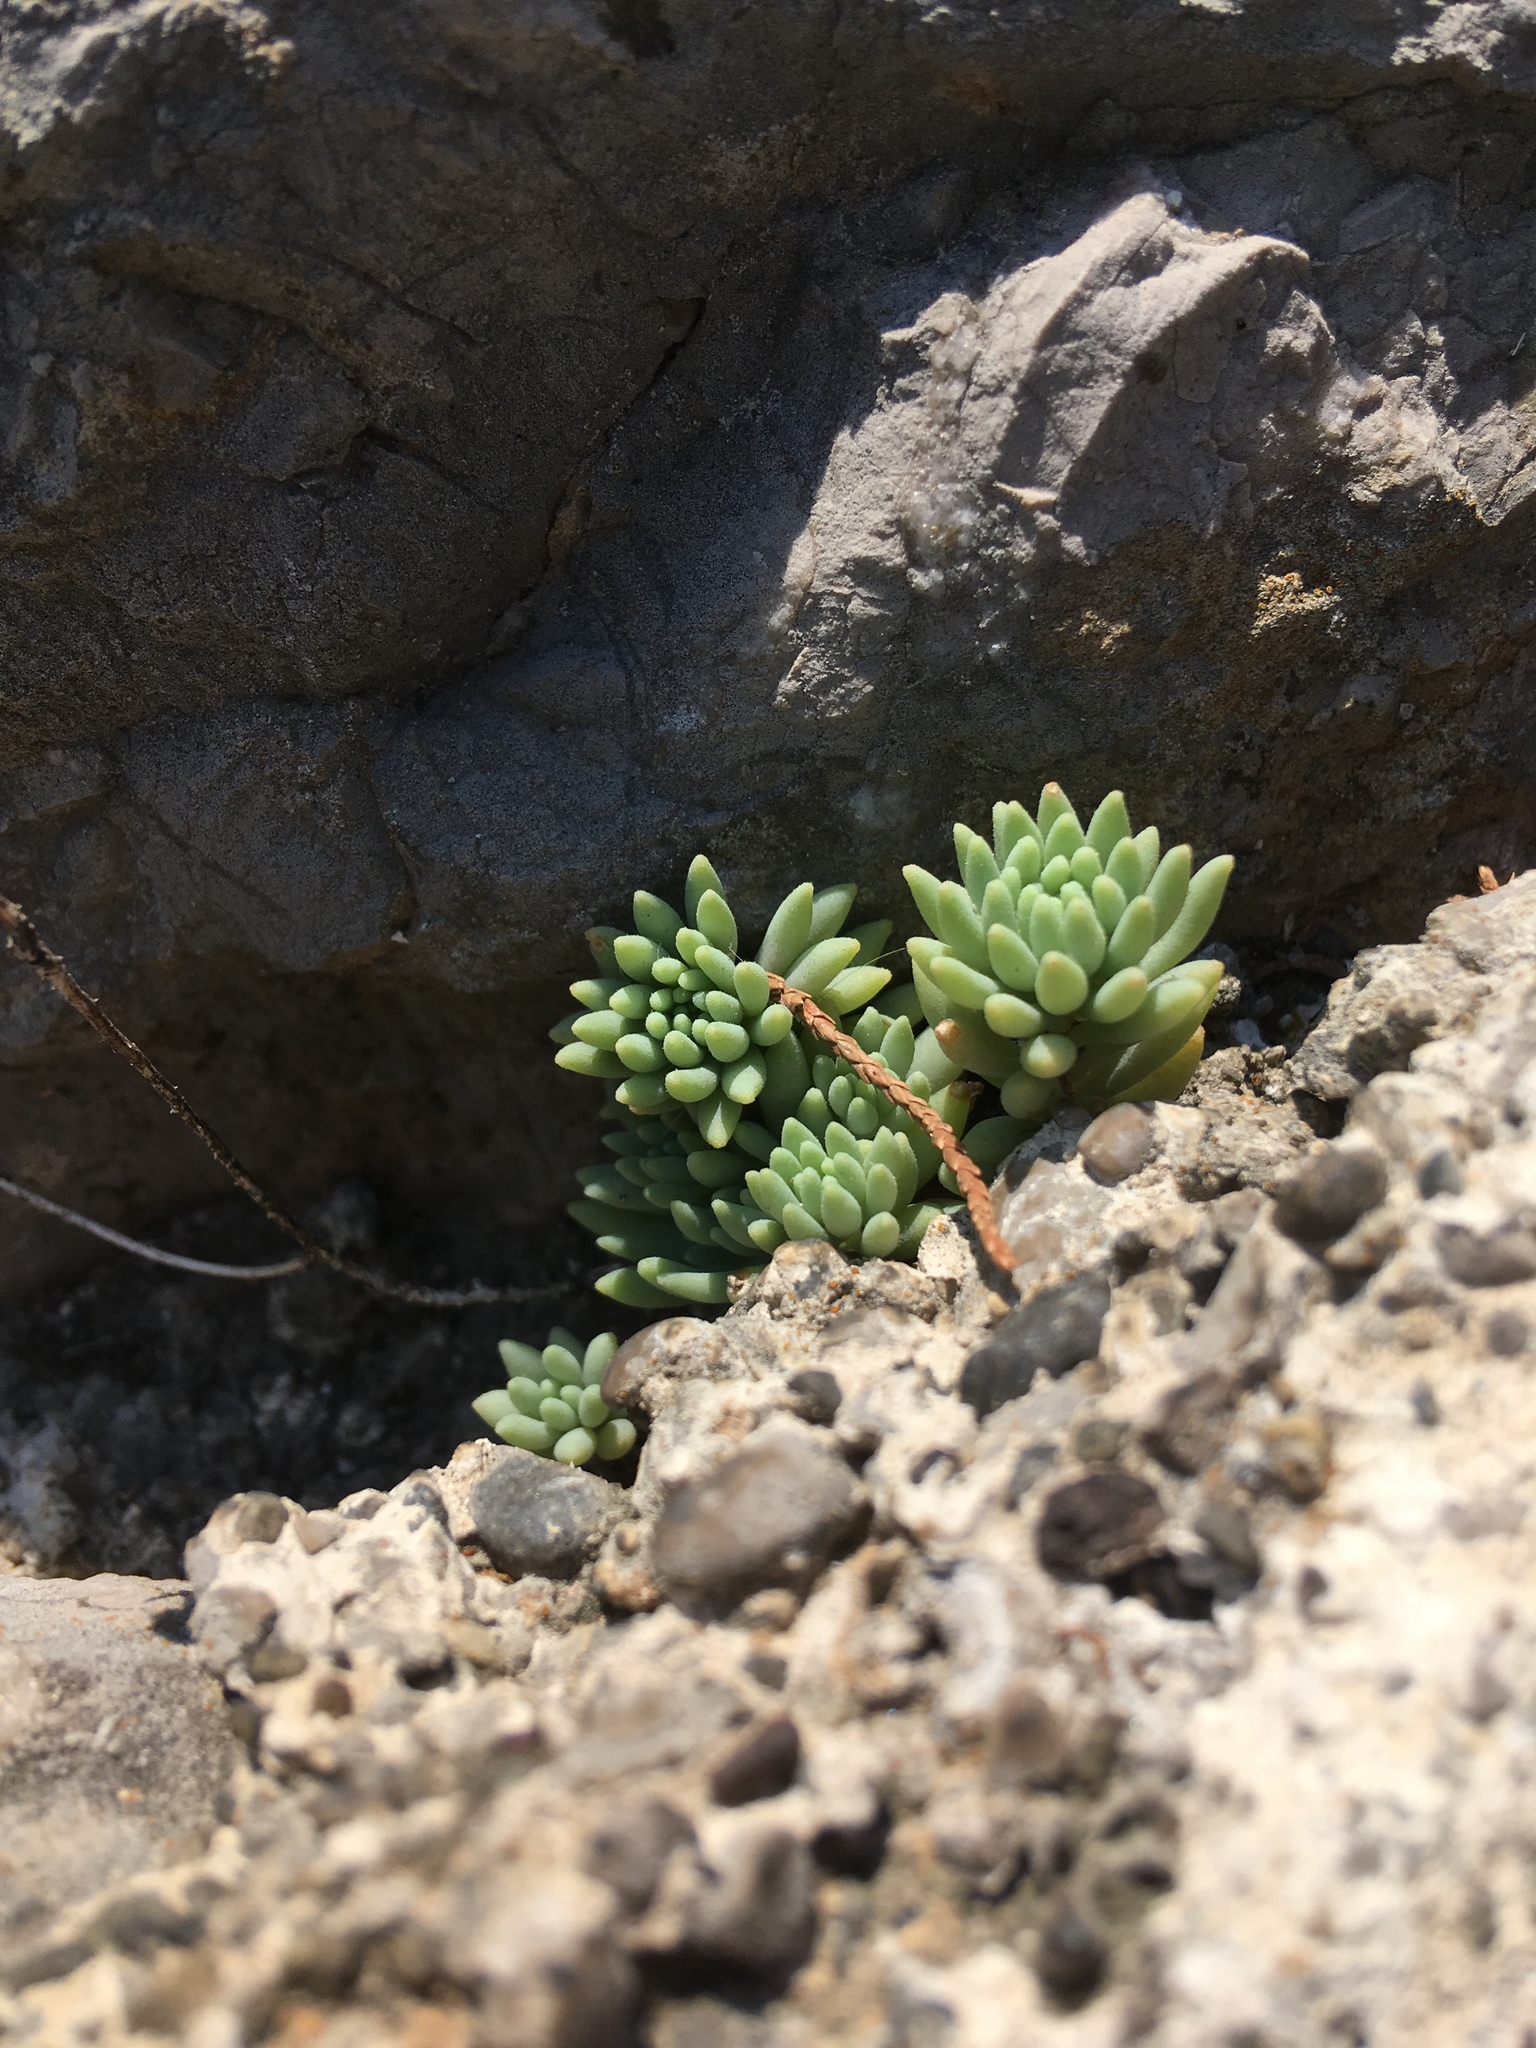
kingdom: Plantae
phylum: Tracheophyta
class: Magnoliopsida
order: Saxifragales
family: Crassulaceae
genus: Sedum
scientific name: Sedum hispanicum
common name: Spanish stonecrop
